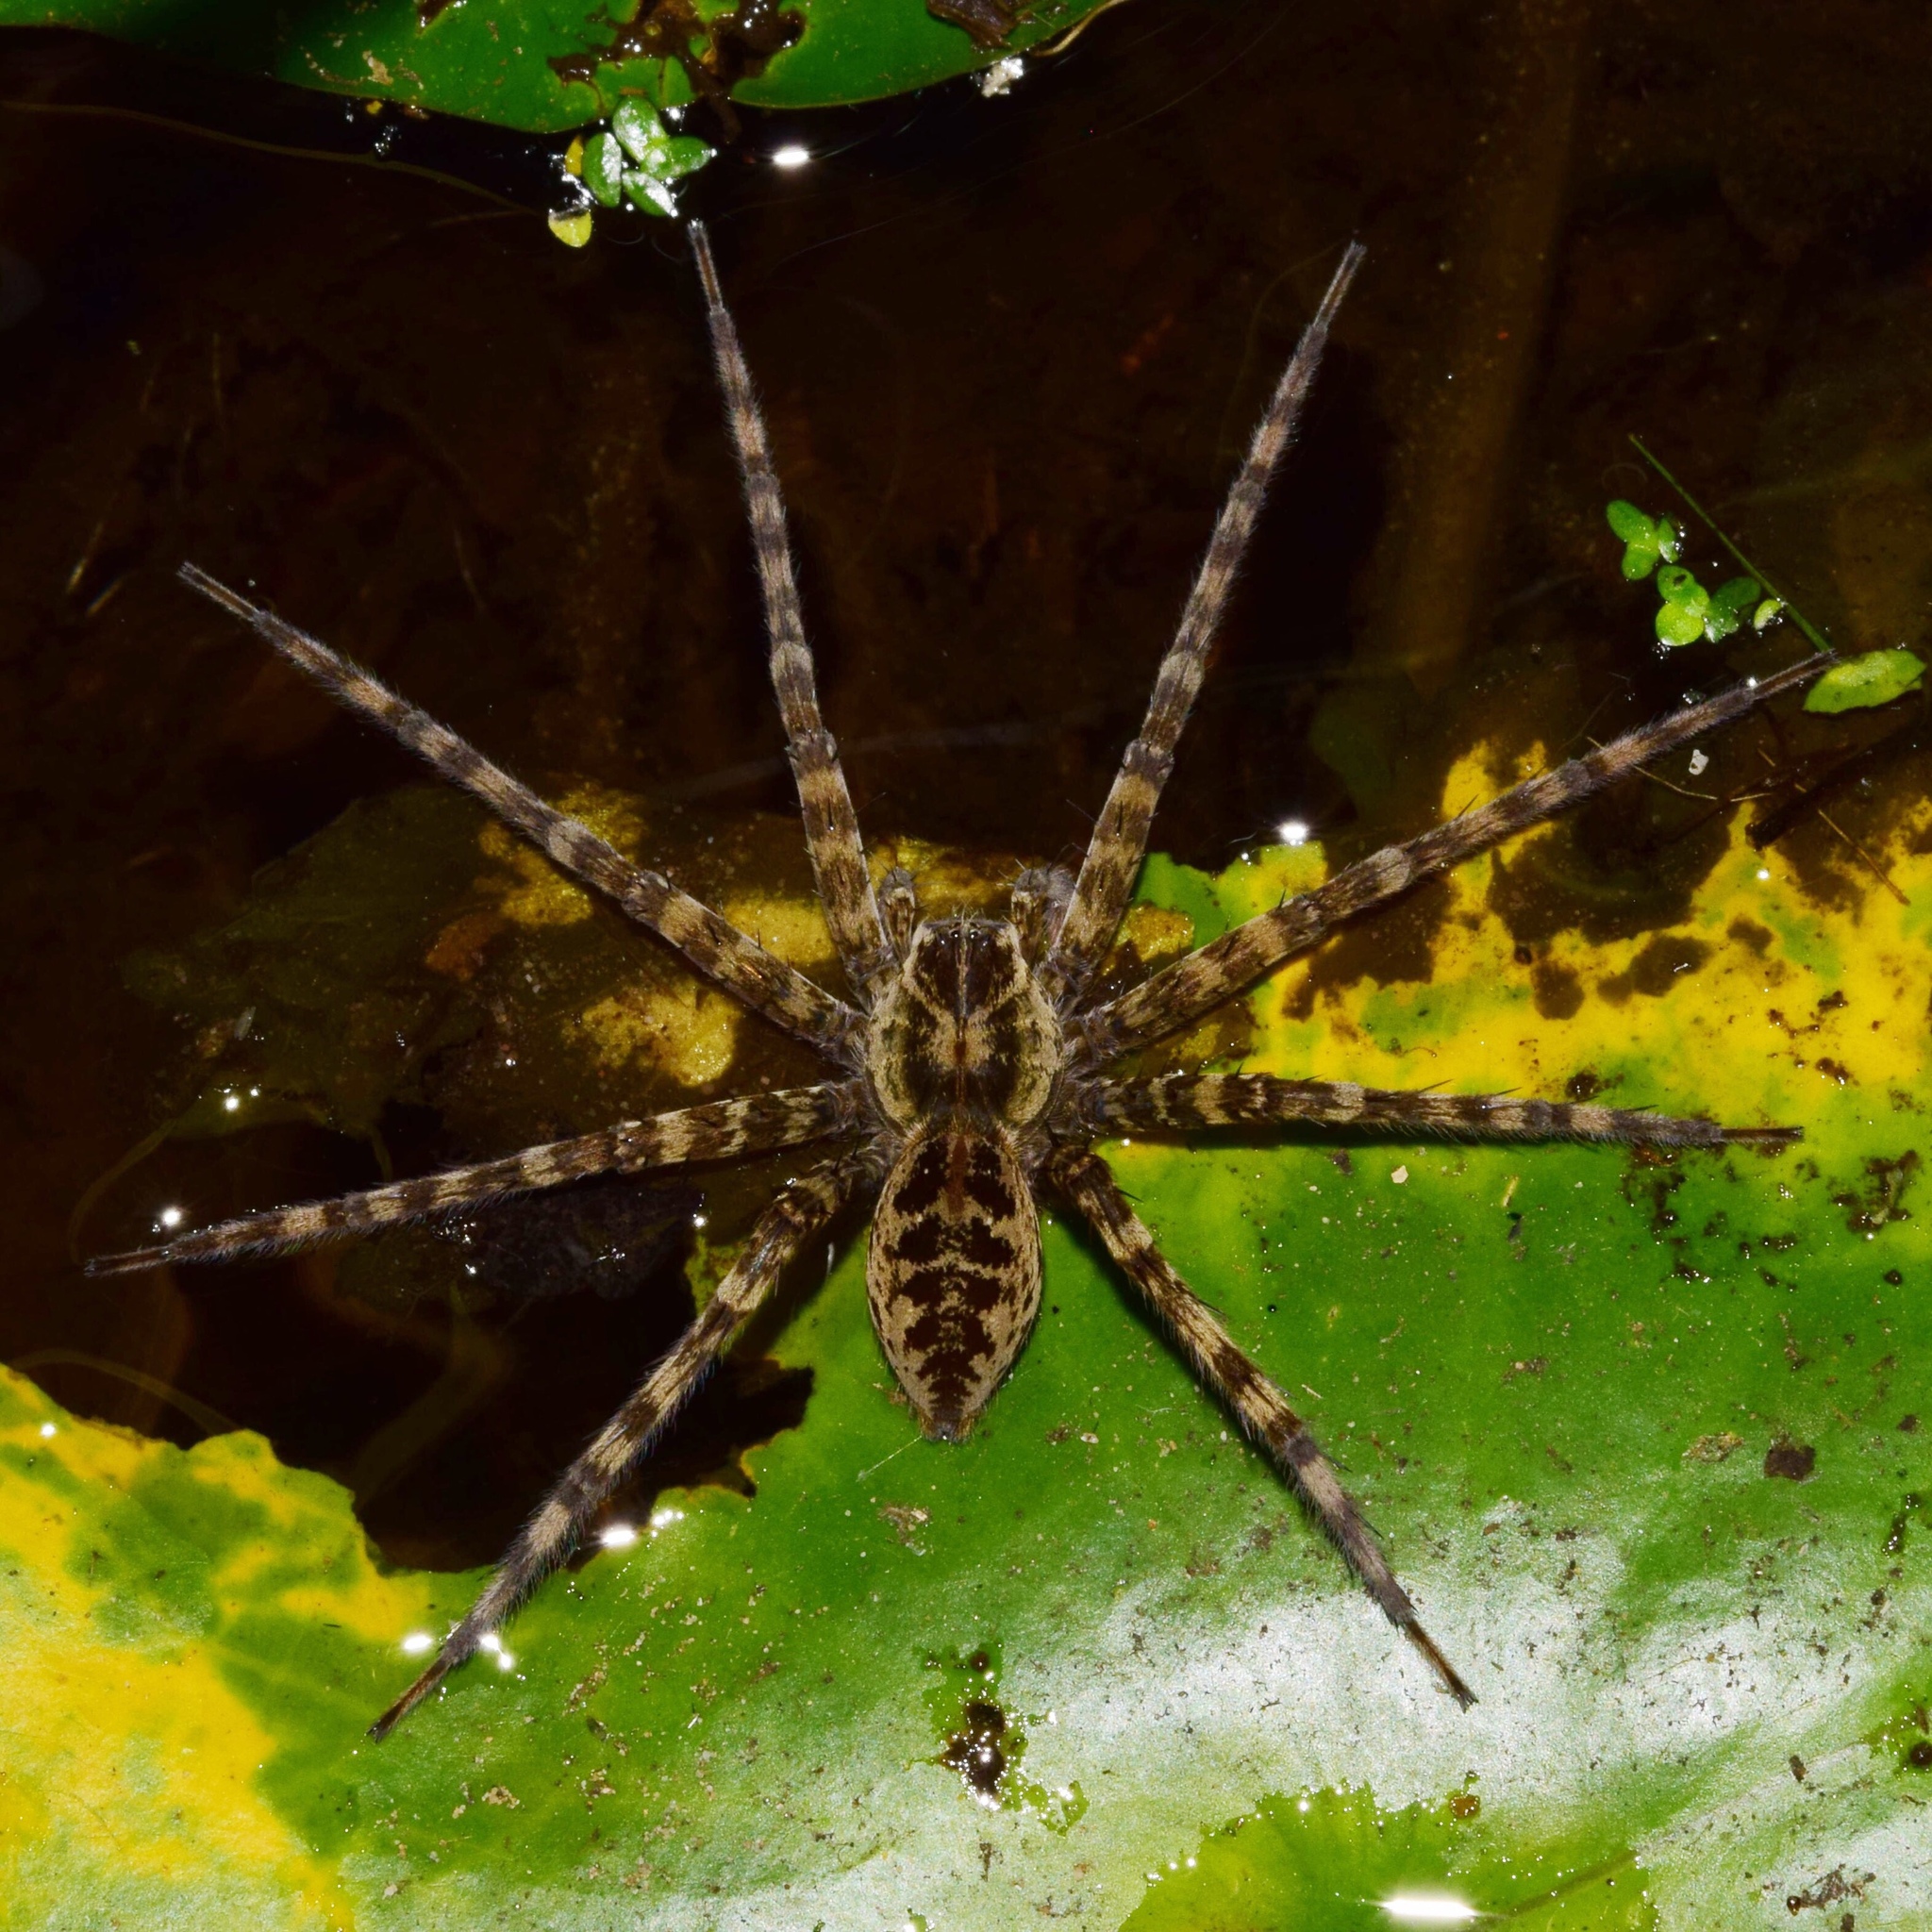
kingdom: Animalia
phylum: Arthropoda
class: Arachnida
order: Araneae
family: Pisauridae
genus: Nilus
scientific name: Nilus radiatolineatus
